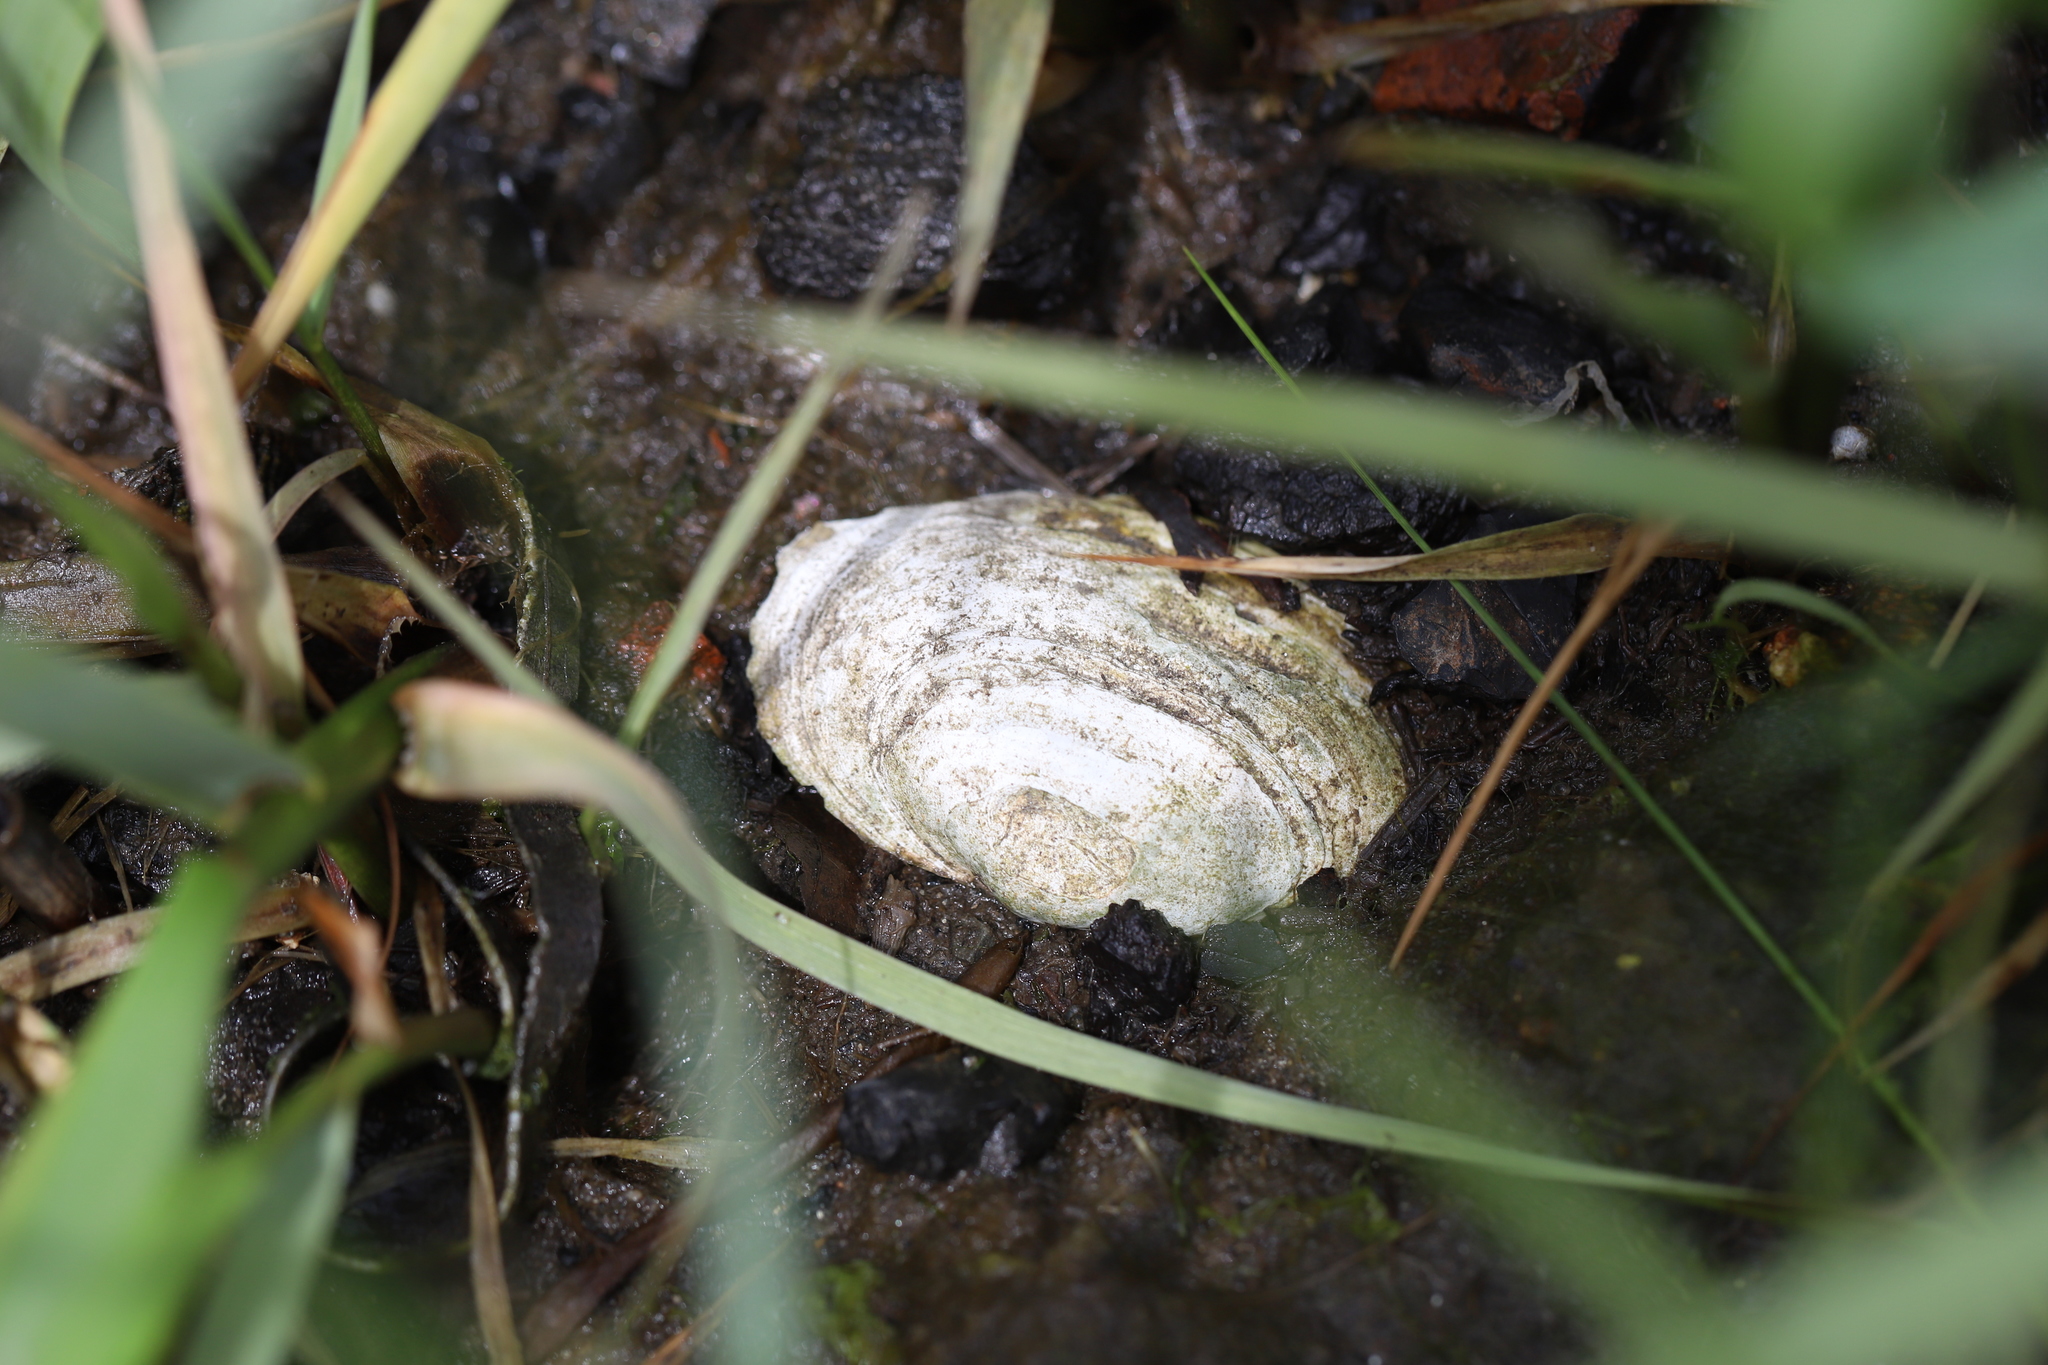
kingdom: Animalia
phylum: Mollusca
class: Bivalvia
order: Myida
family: Myidae
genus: Mya
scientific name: Mya arenaria
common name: Soft-shelled clam
